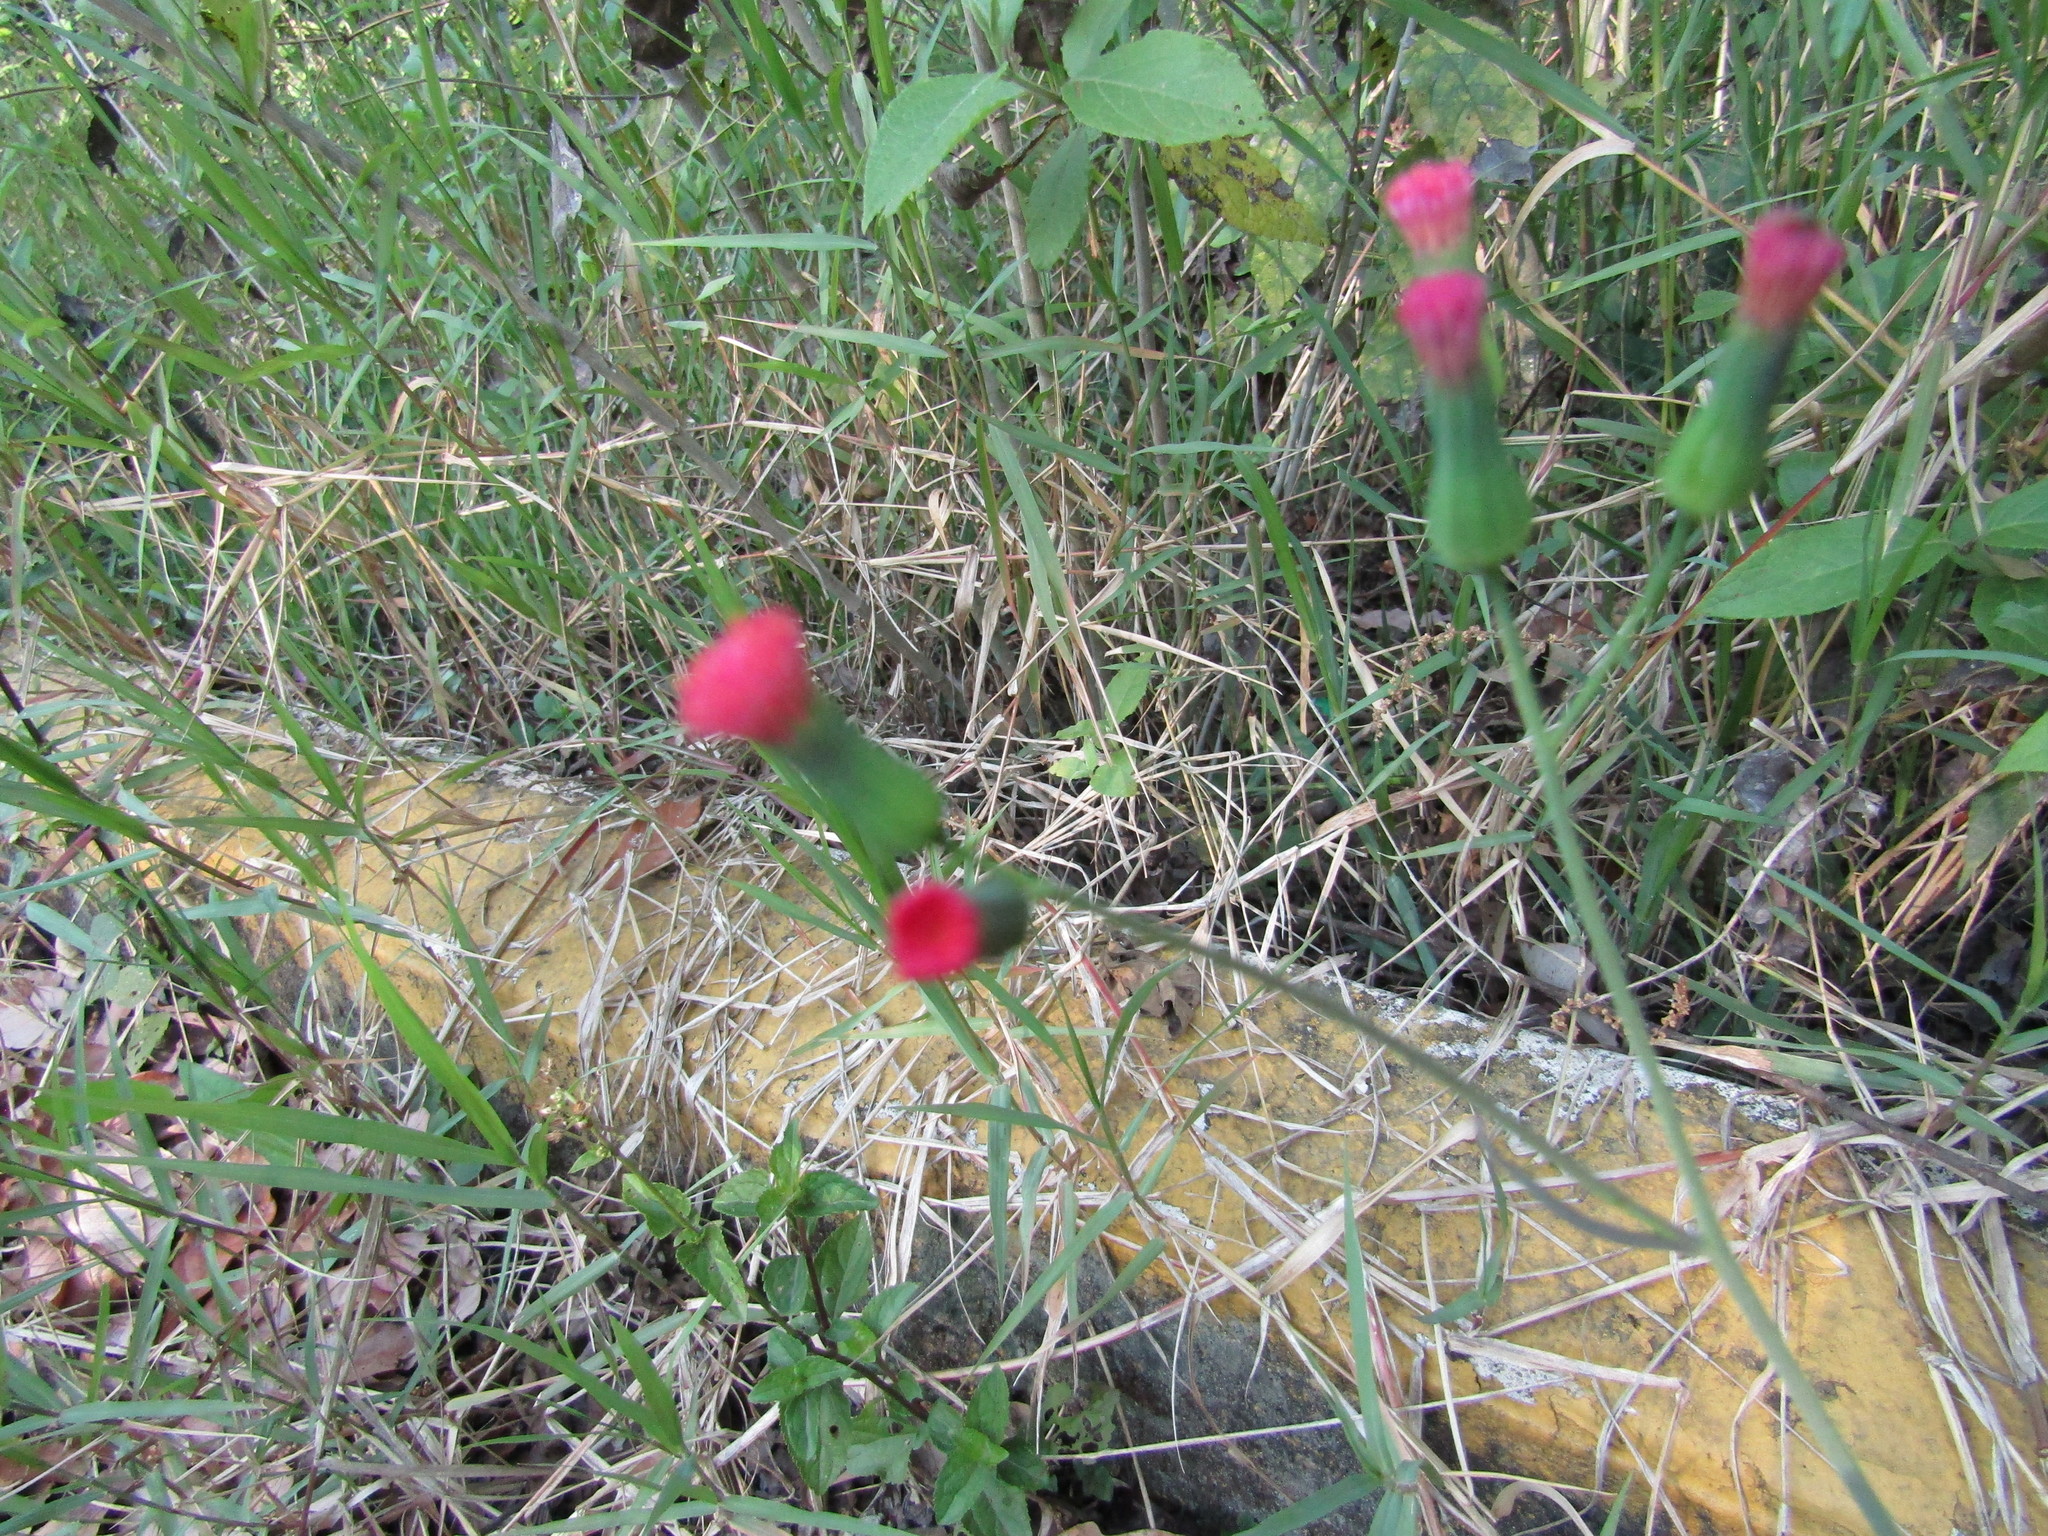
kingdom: Plantae
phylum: Tracheophyta
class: Magnoliopsida
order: Asterales
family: Asteraceae
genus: Emilia
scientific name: Emilia fosbergii
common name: Florida tasselflower
